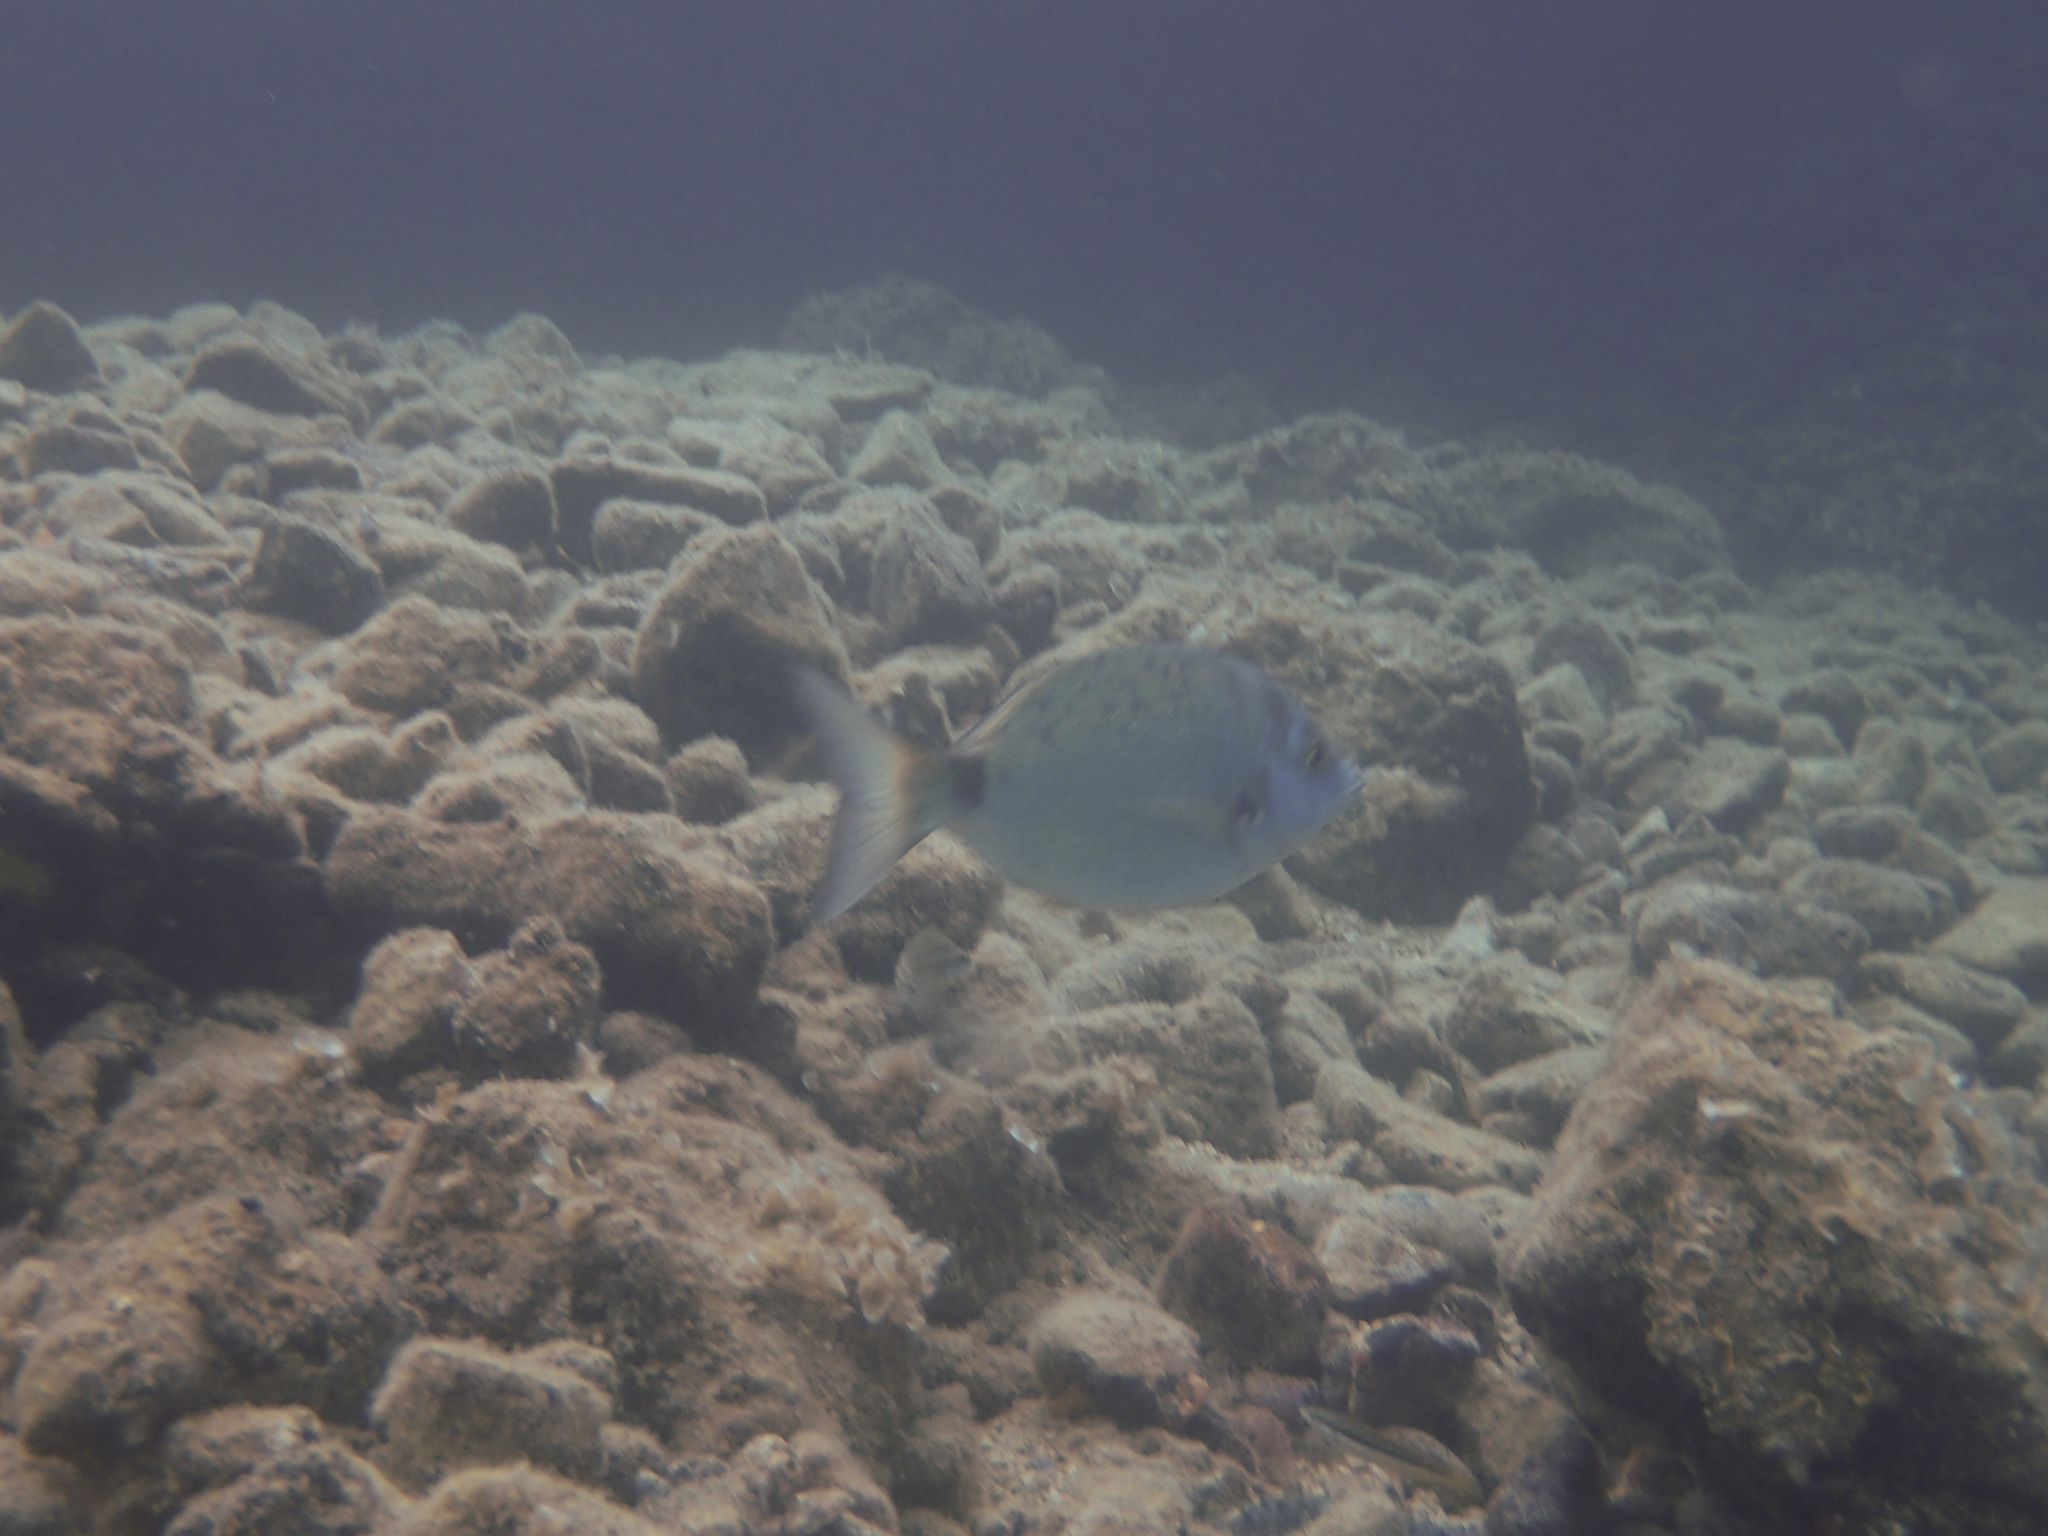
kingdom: Animalia
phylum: Chordata
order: Perciformes
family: Sparidae
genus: Diplodus
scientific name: Diplodus puntazzo
